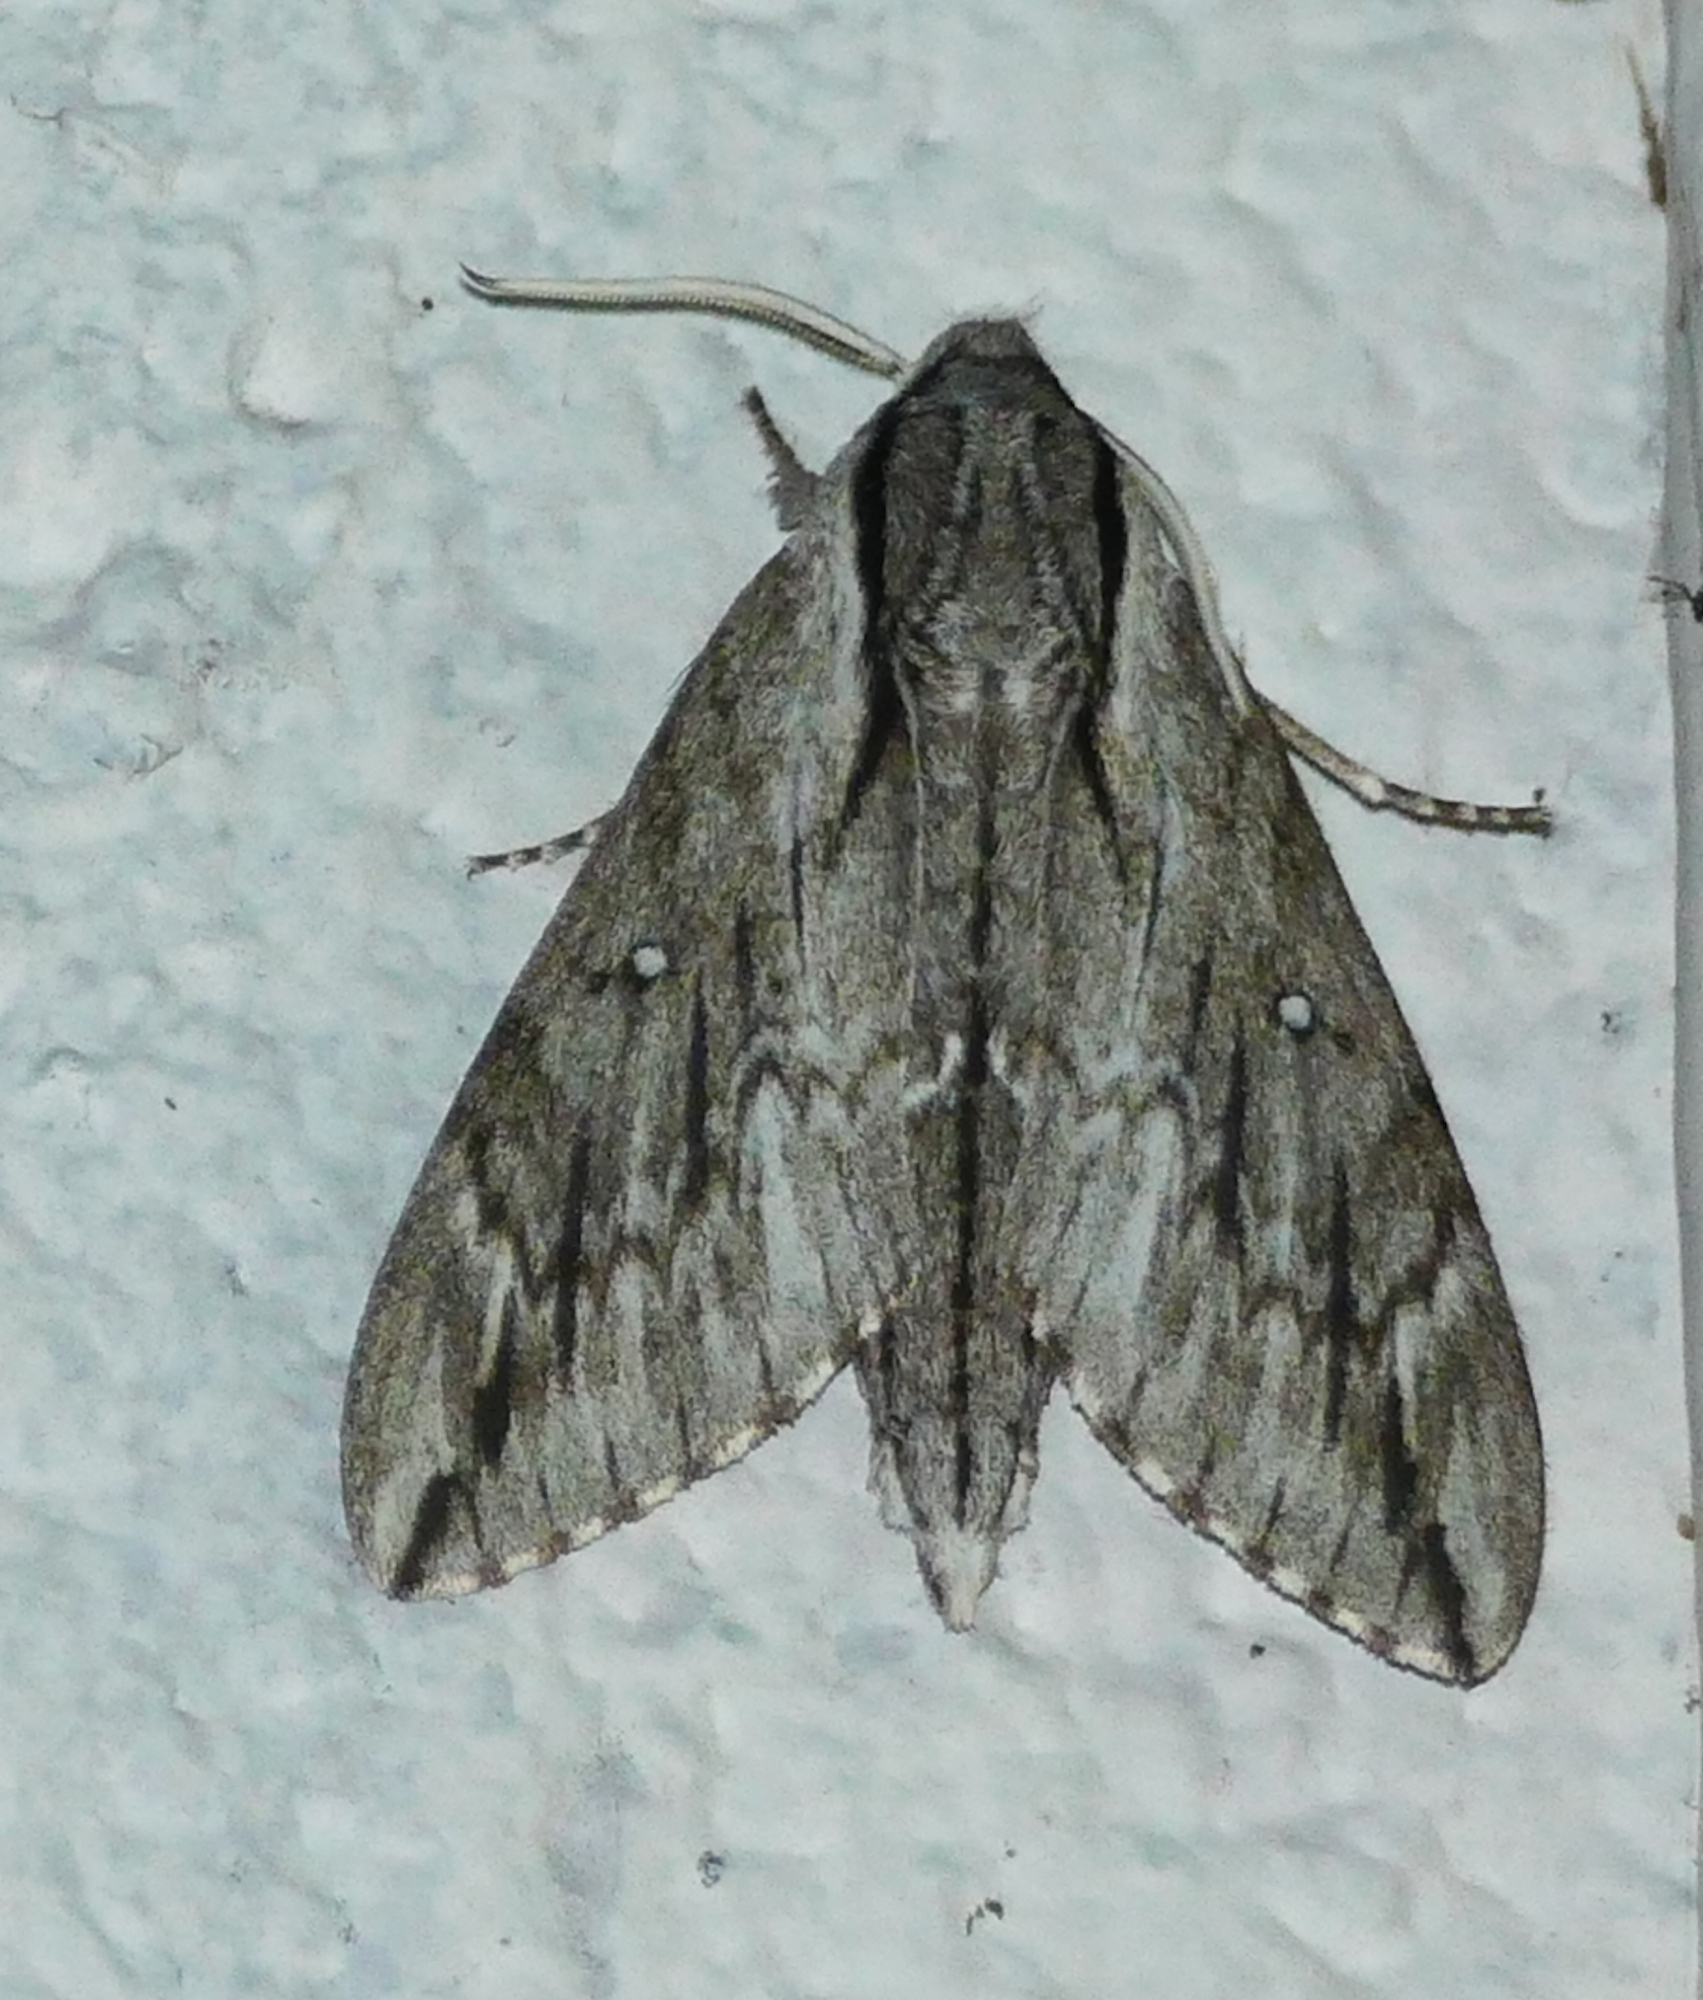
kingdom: Animalia
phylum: Arthropoda
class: Insecta
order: Lepidoptera
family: Sphingidae
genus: Paratrea
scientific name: Paratrea plebeja
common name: Plebian sphinx
